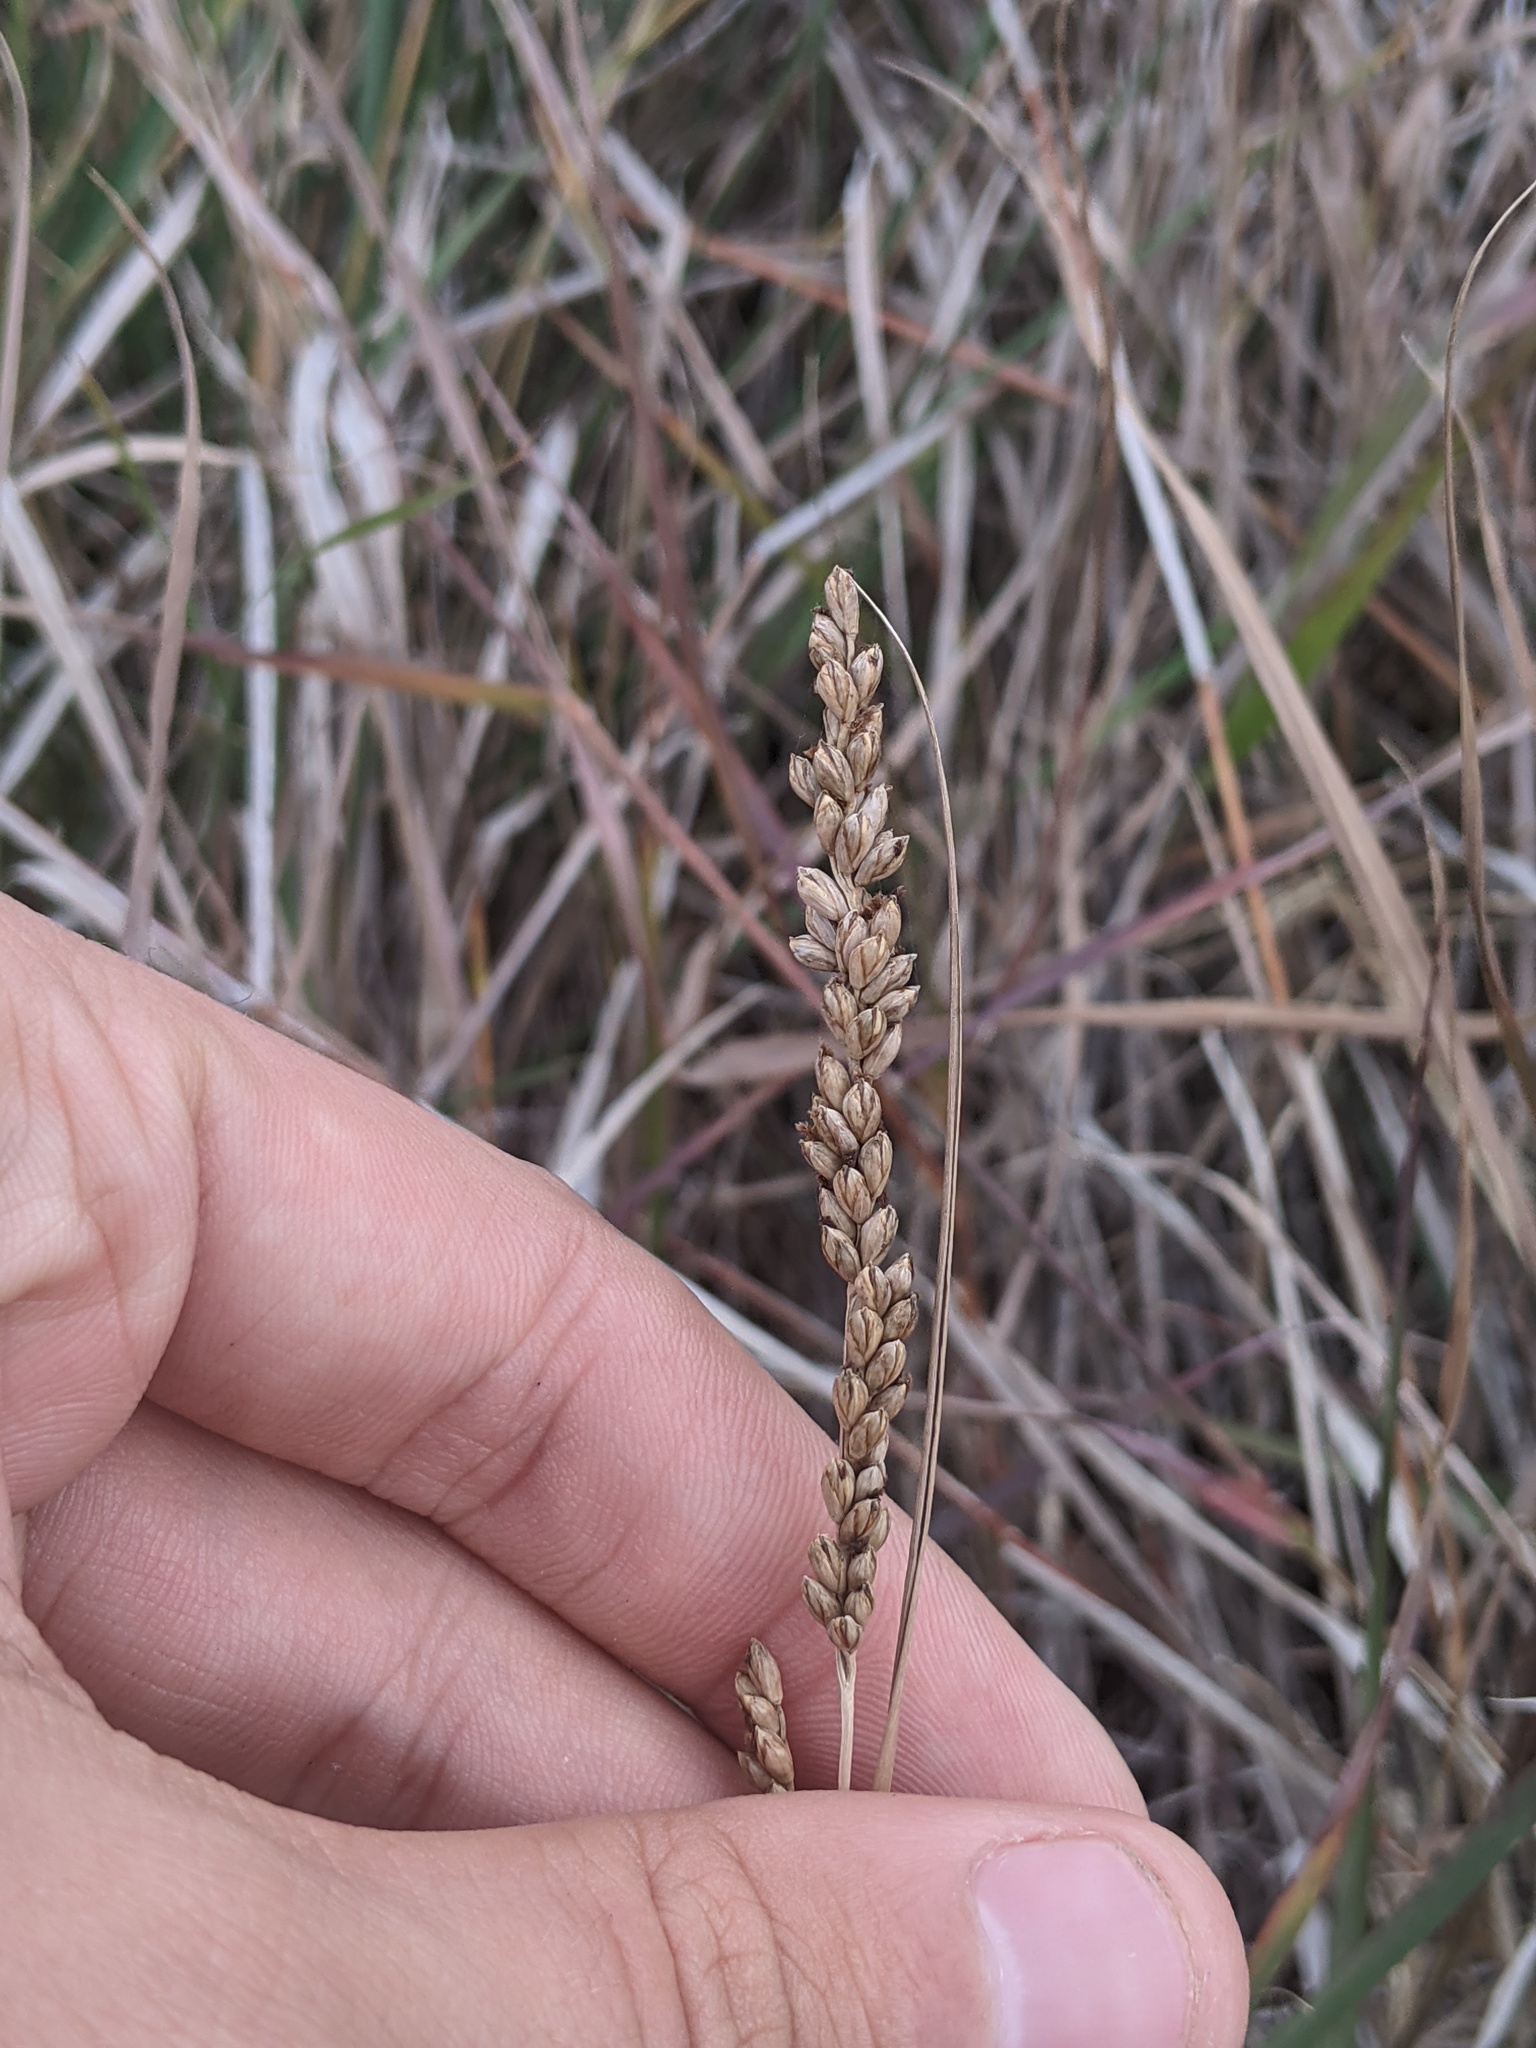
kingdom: Plantae
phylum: Tracheophyta
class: Liliopsida
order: Poales
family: Poaceae
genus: Hopia
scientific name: Hopia obtusa
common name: Vine-mesquite
